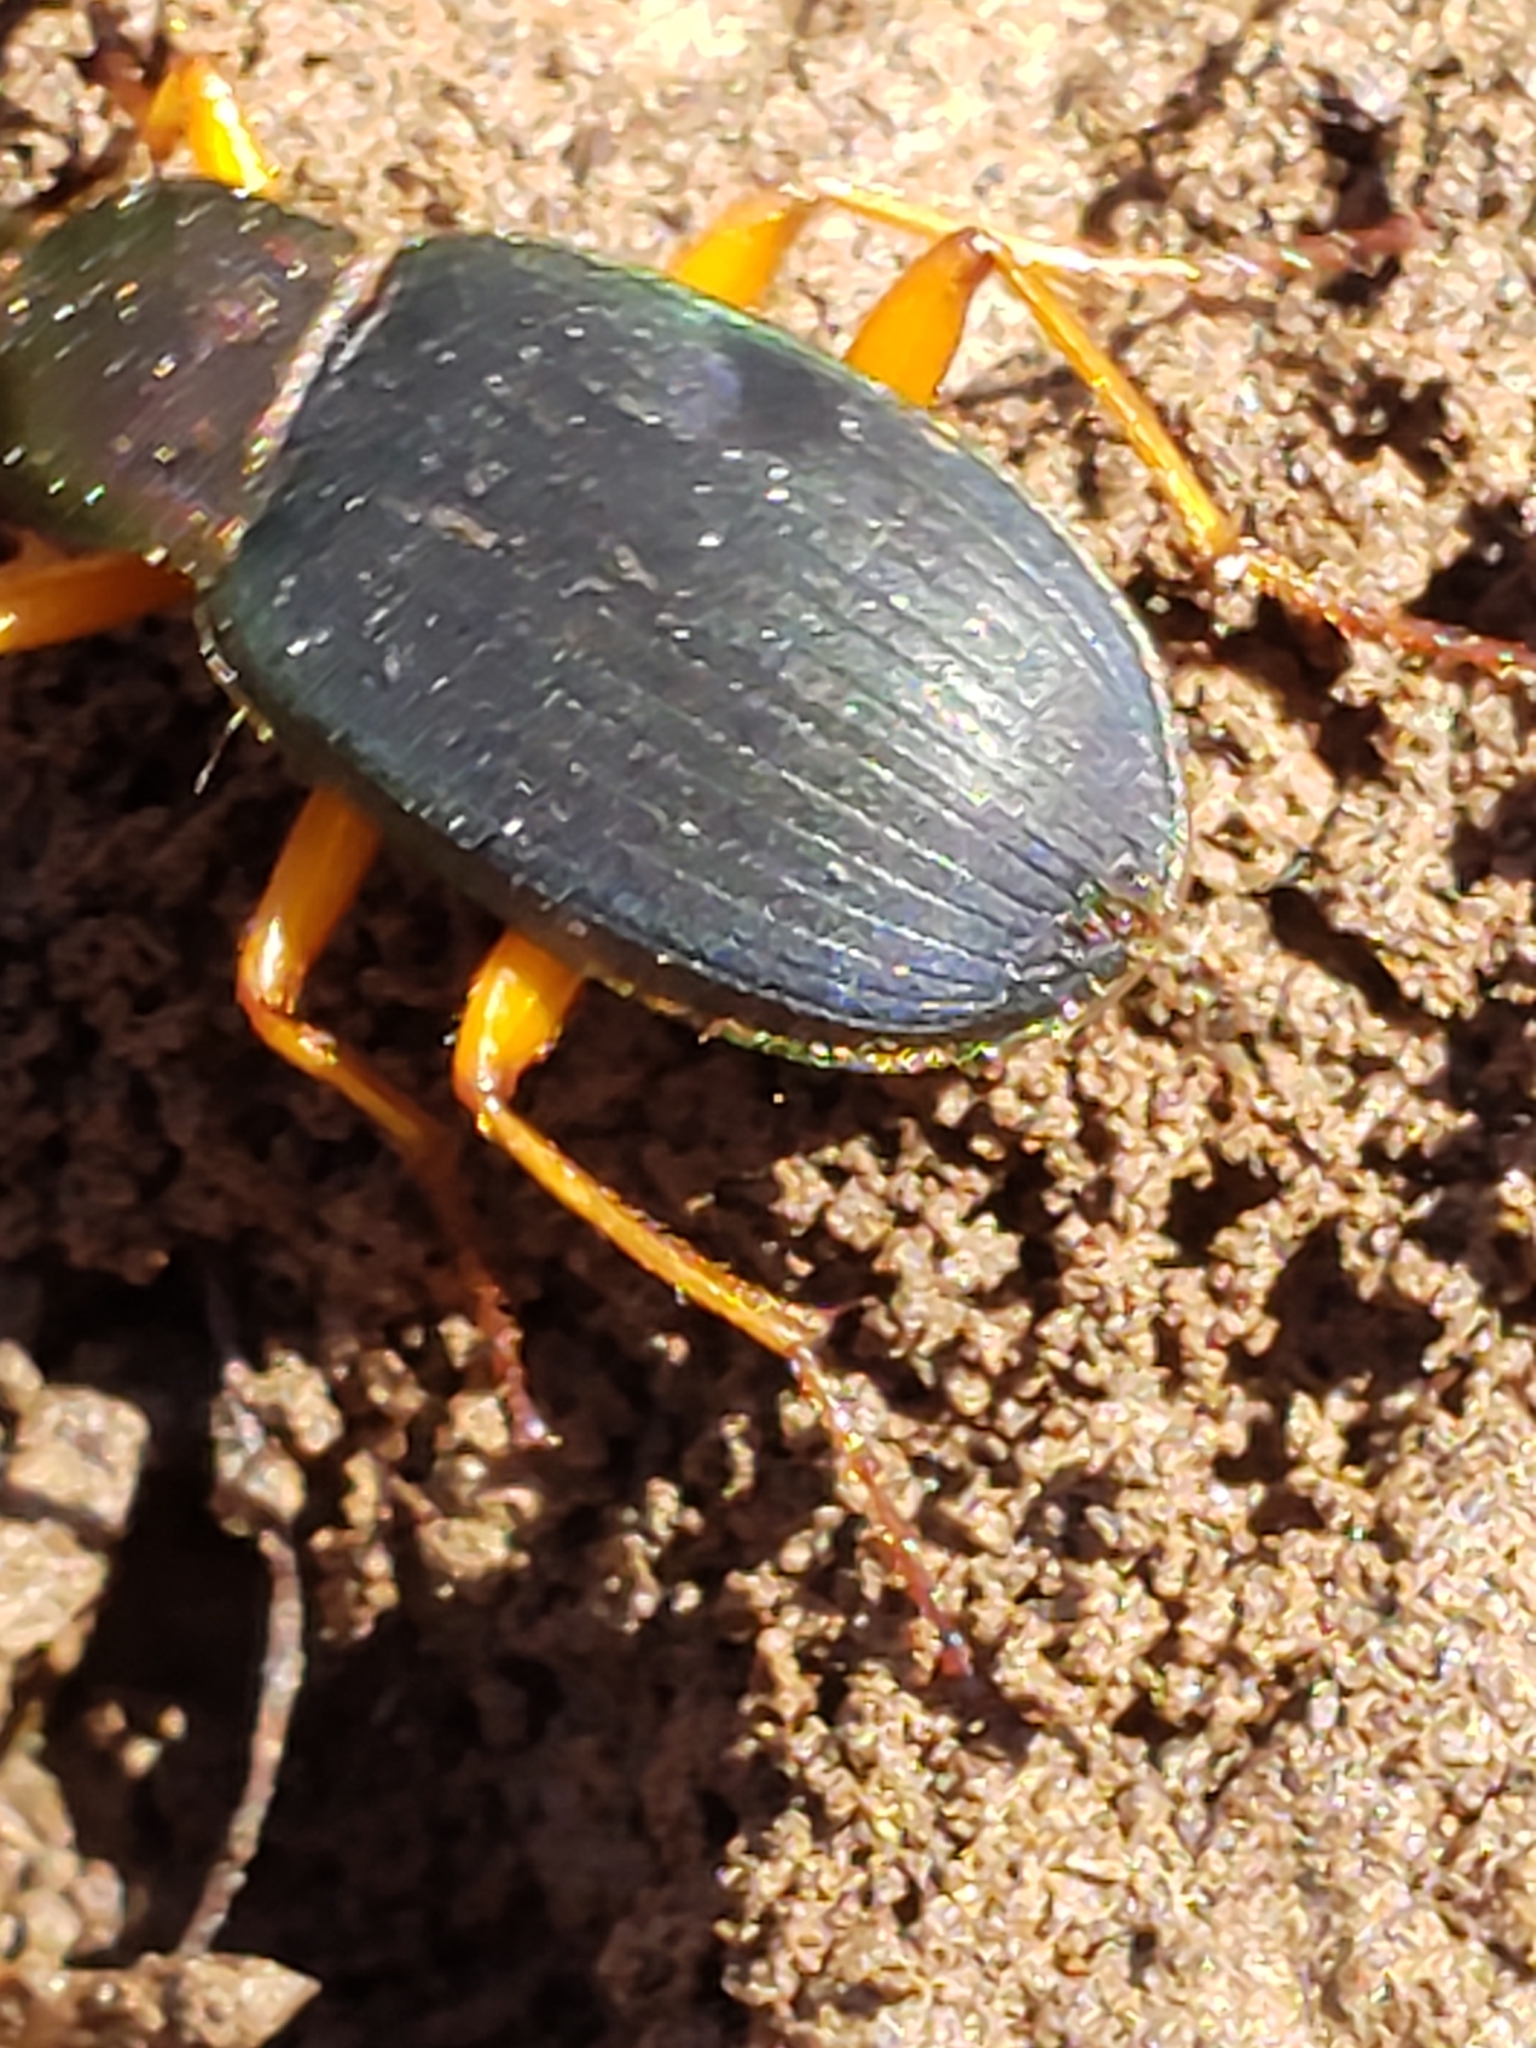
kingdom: Animalia
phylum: Arthropoda
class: Insecta
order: Coleoptera
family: Carabidae
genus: Chlaenius
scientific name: Chlaenius aestivus
